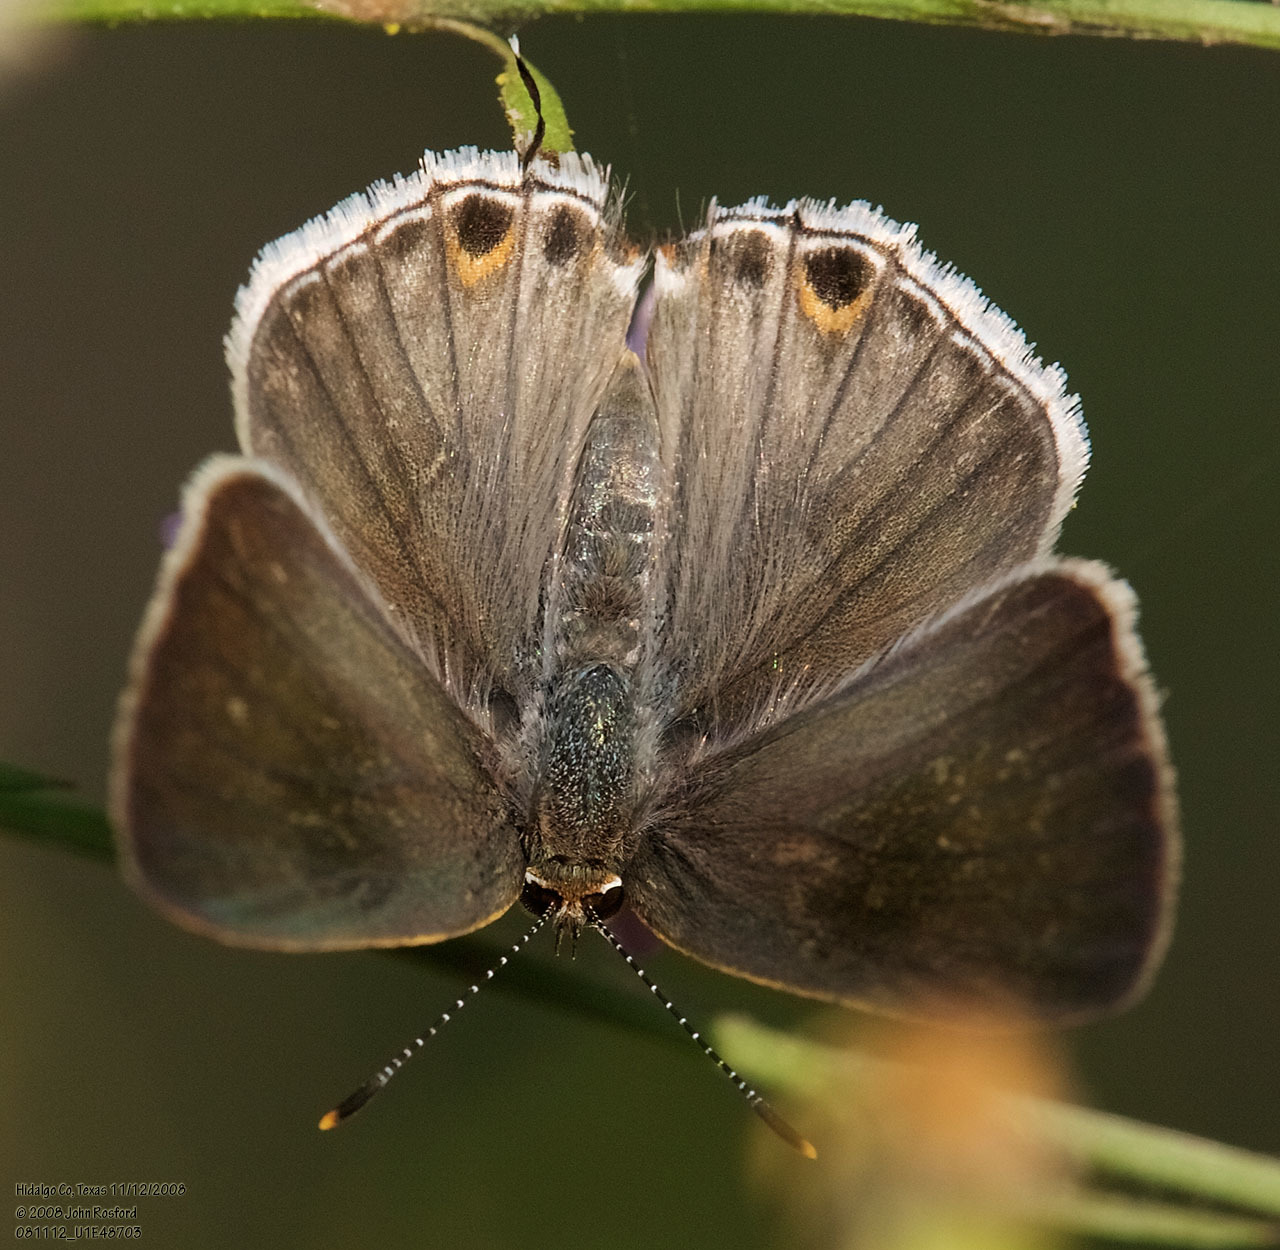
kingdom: Animalia
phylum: Arthropoda
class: Insecta
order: Lepidoptera
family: Lycaenidae
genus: Thecla
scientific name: Thecla yojoa
